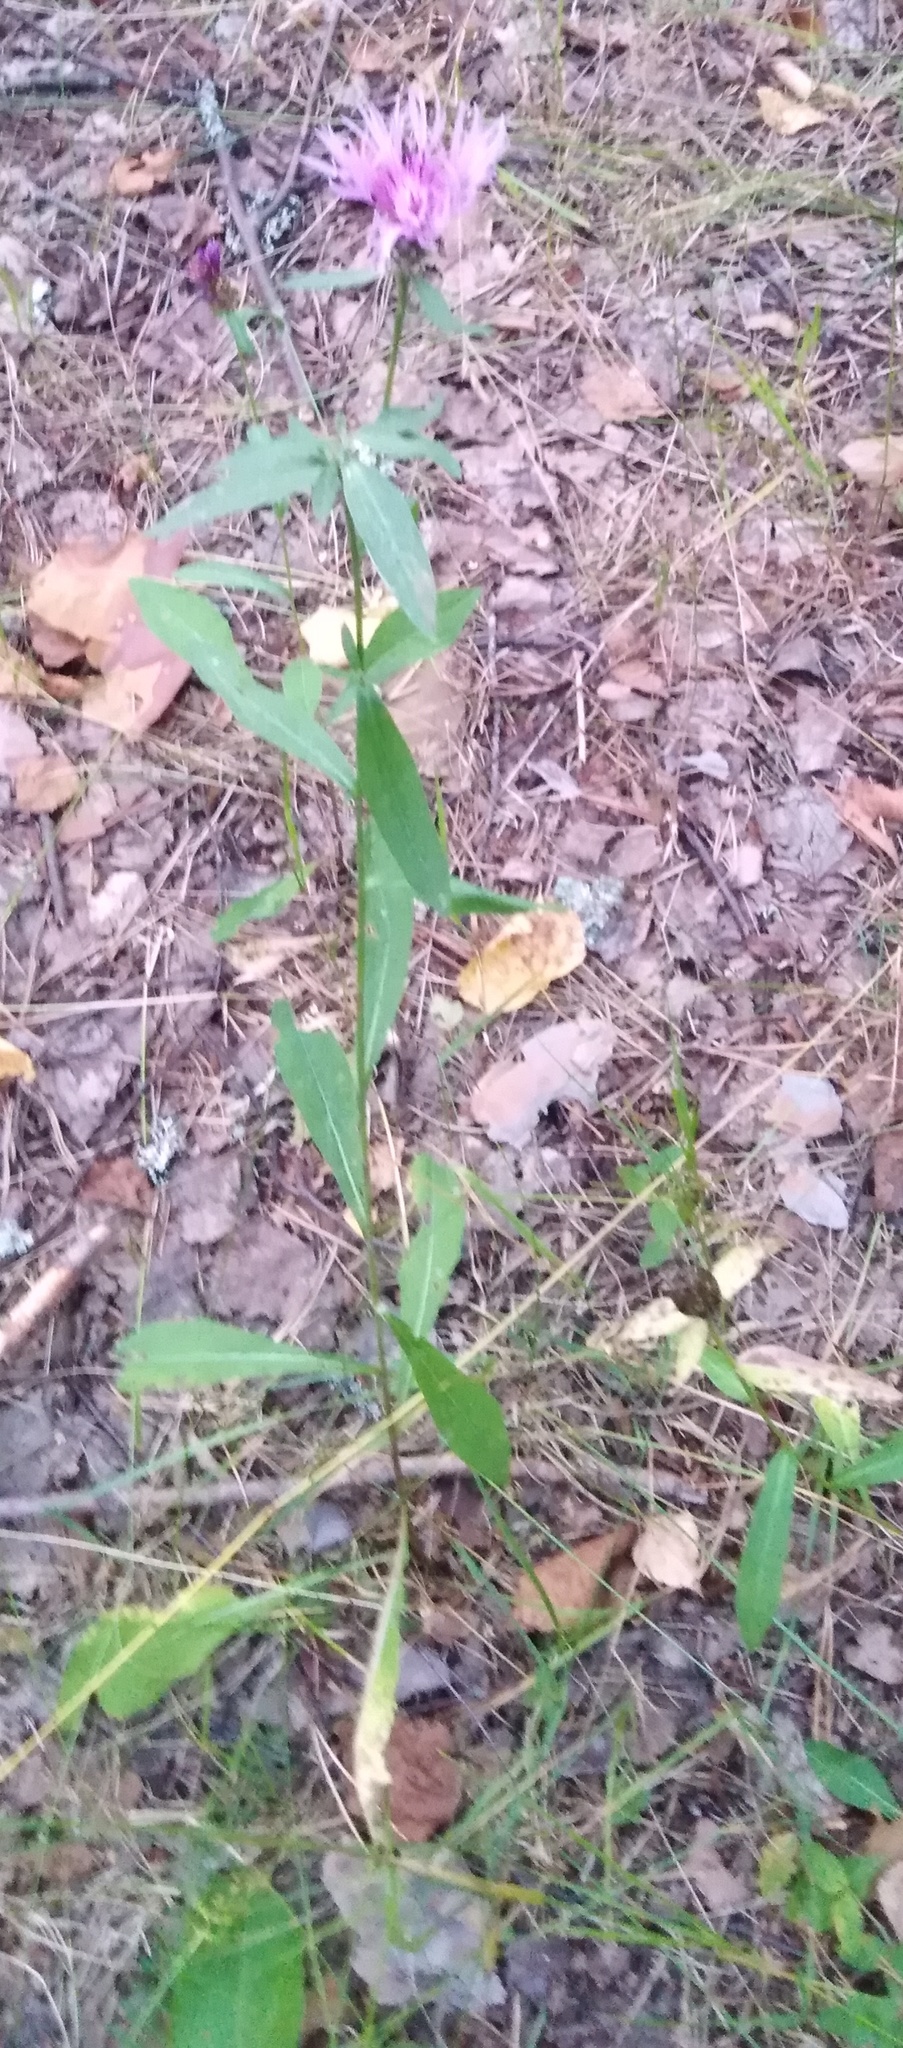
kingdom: Plantae
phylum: Tracheophyta
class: Magnoliopsida
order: Asterales
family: Asteraceae
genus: Centaurea
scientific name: Centaurea jacea
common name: Brown knapweed
